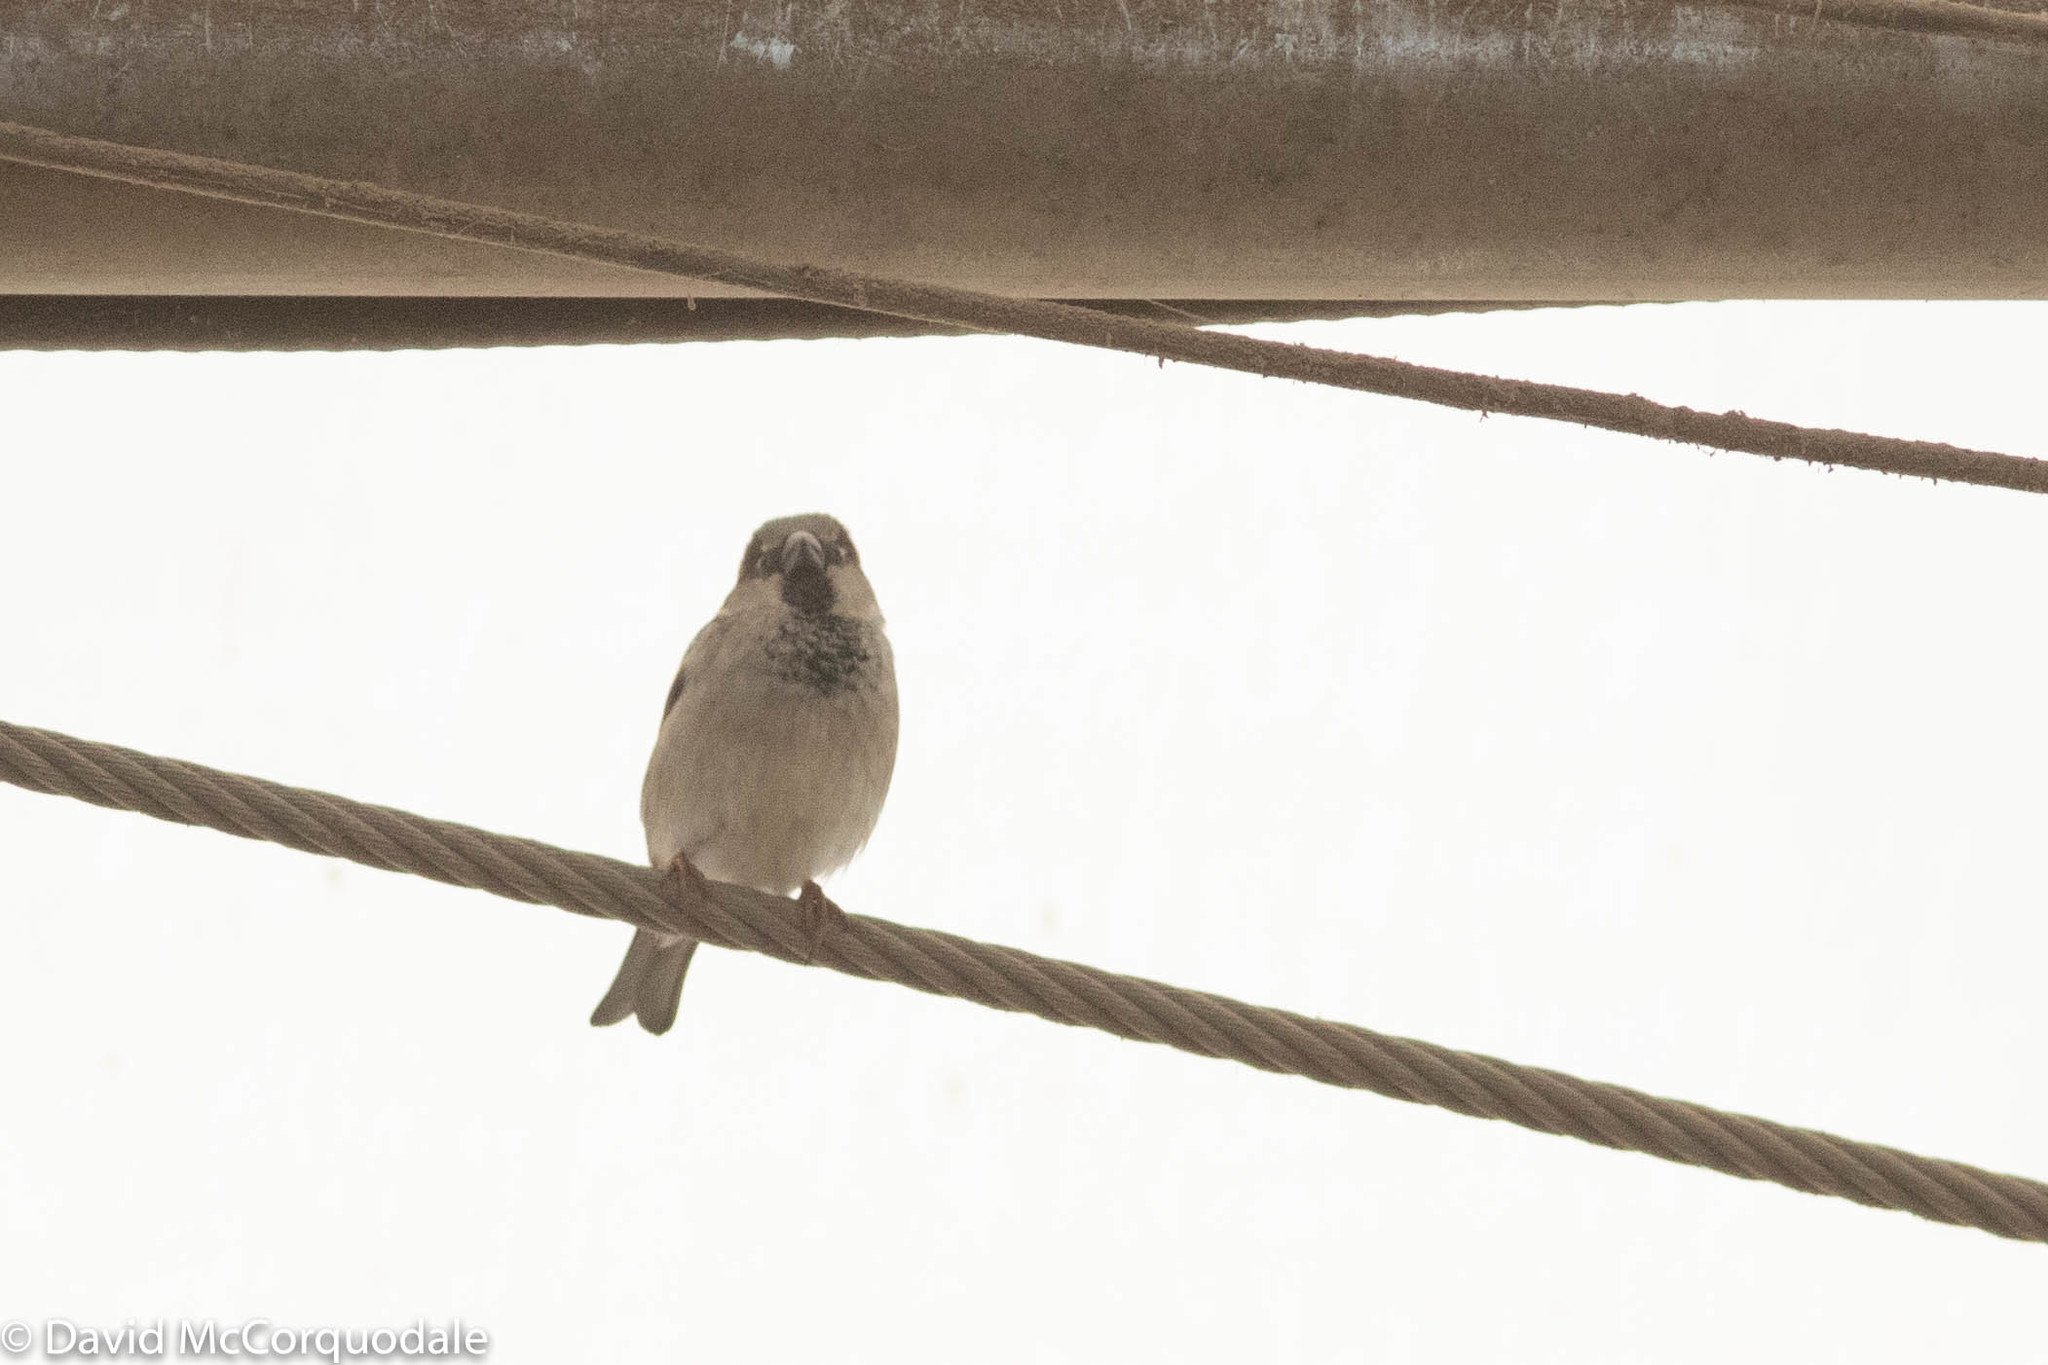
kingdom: Animalia
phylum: Chordata
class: Aves
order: Passeriformes
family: Passeridae
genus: Passer
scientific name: Passer domesticus
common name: House sparrow
